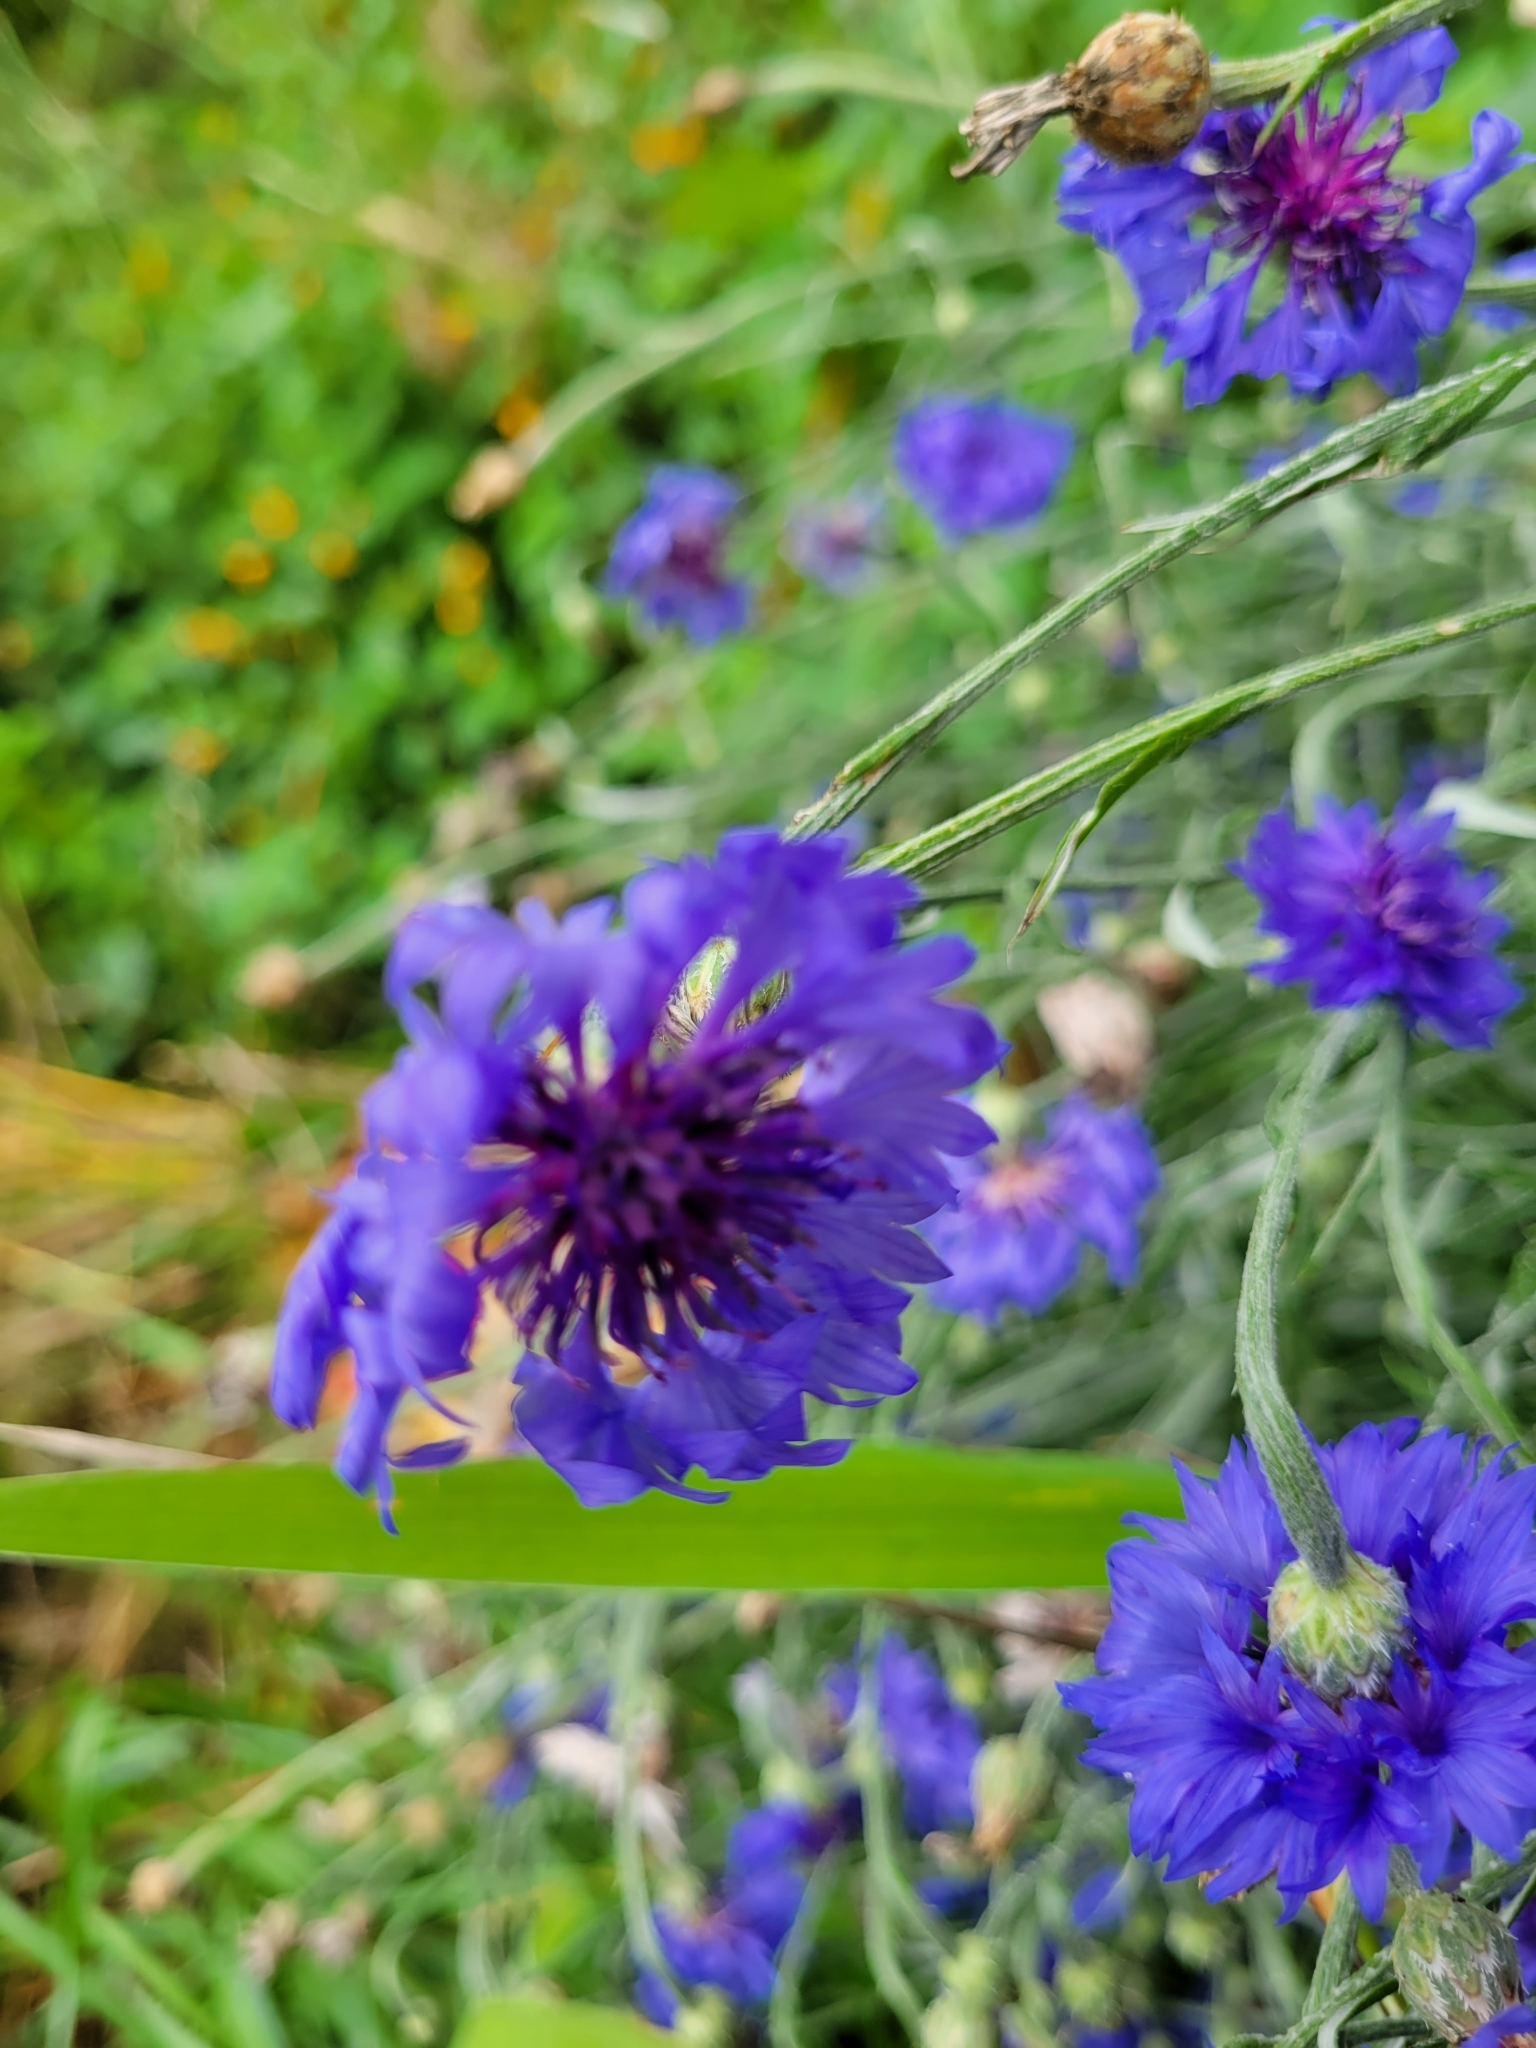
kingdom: Plantae
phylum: Tracheophyta
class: Magnoliopsida
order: Asterales
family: Asteraceae
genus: Centaurea
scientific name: Centaurea cyanus
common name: Cornflower
